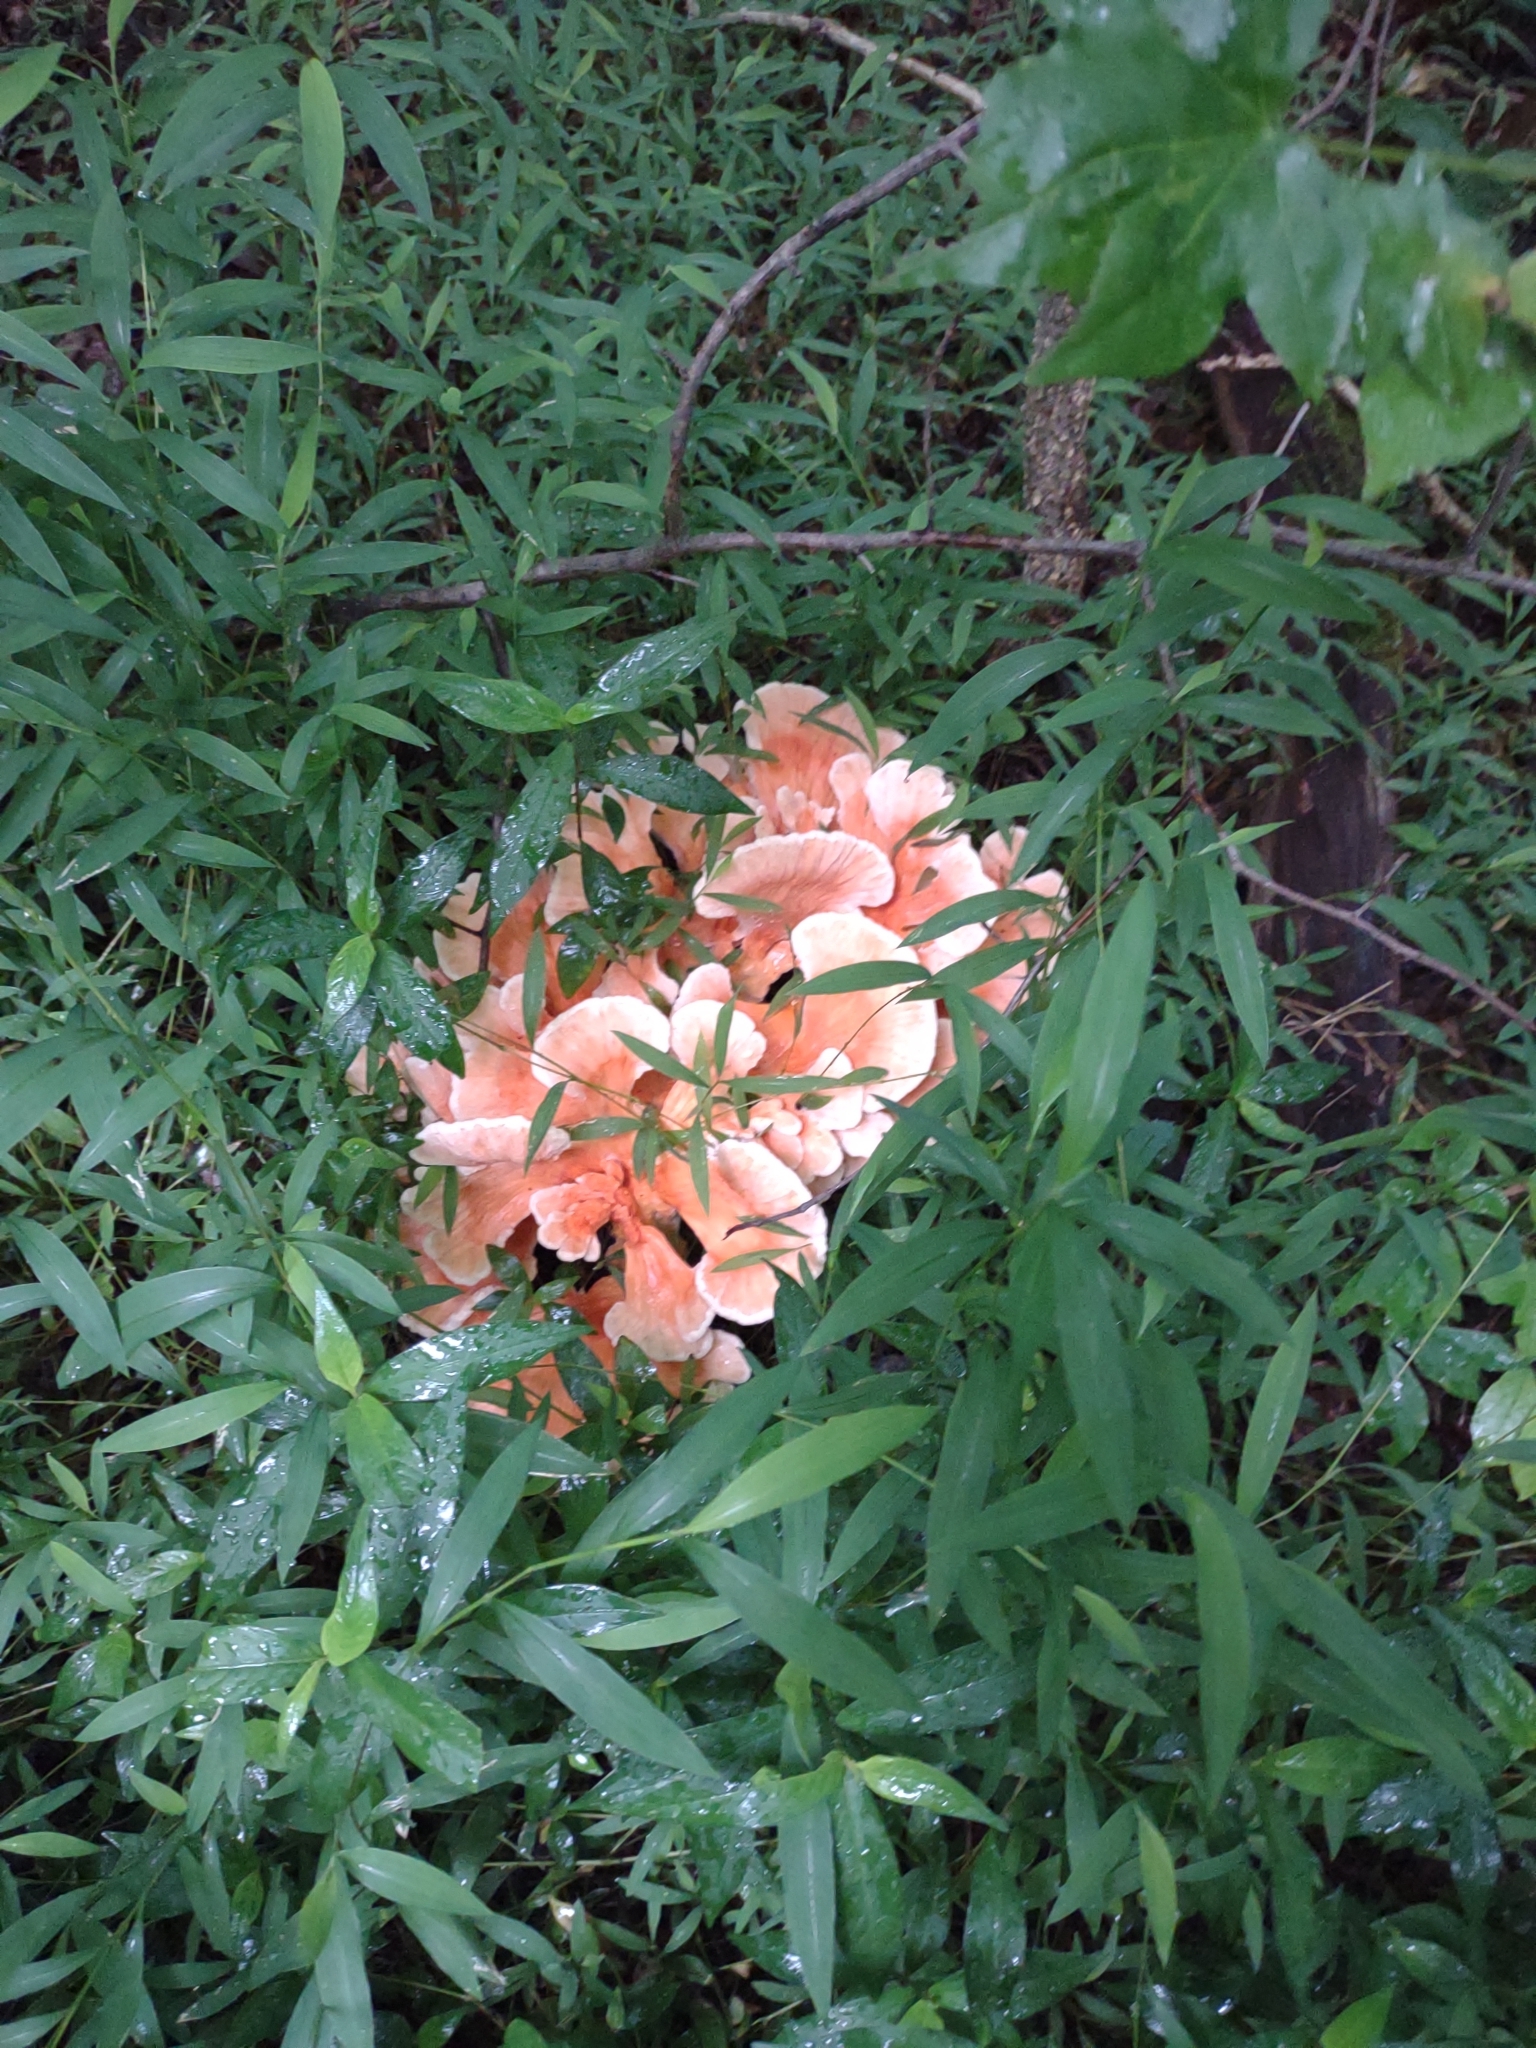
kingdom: Fungi
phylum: Basidiomycota
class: Agaricomycetes
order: Polyporales
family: Laetiporaceae
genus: Laetiporus
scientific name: Laetiporus sulphureus
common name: Chicken of the woods
